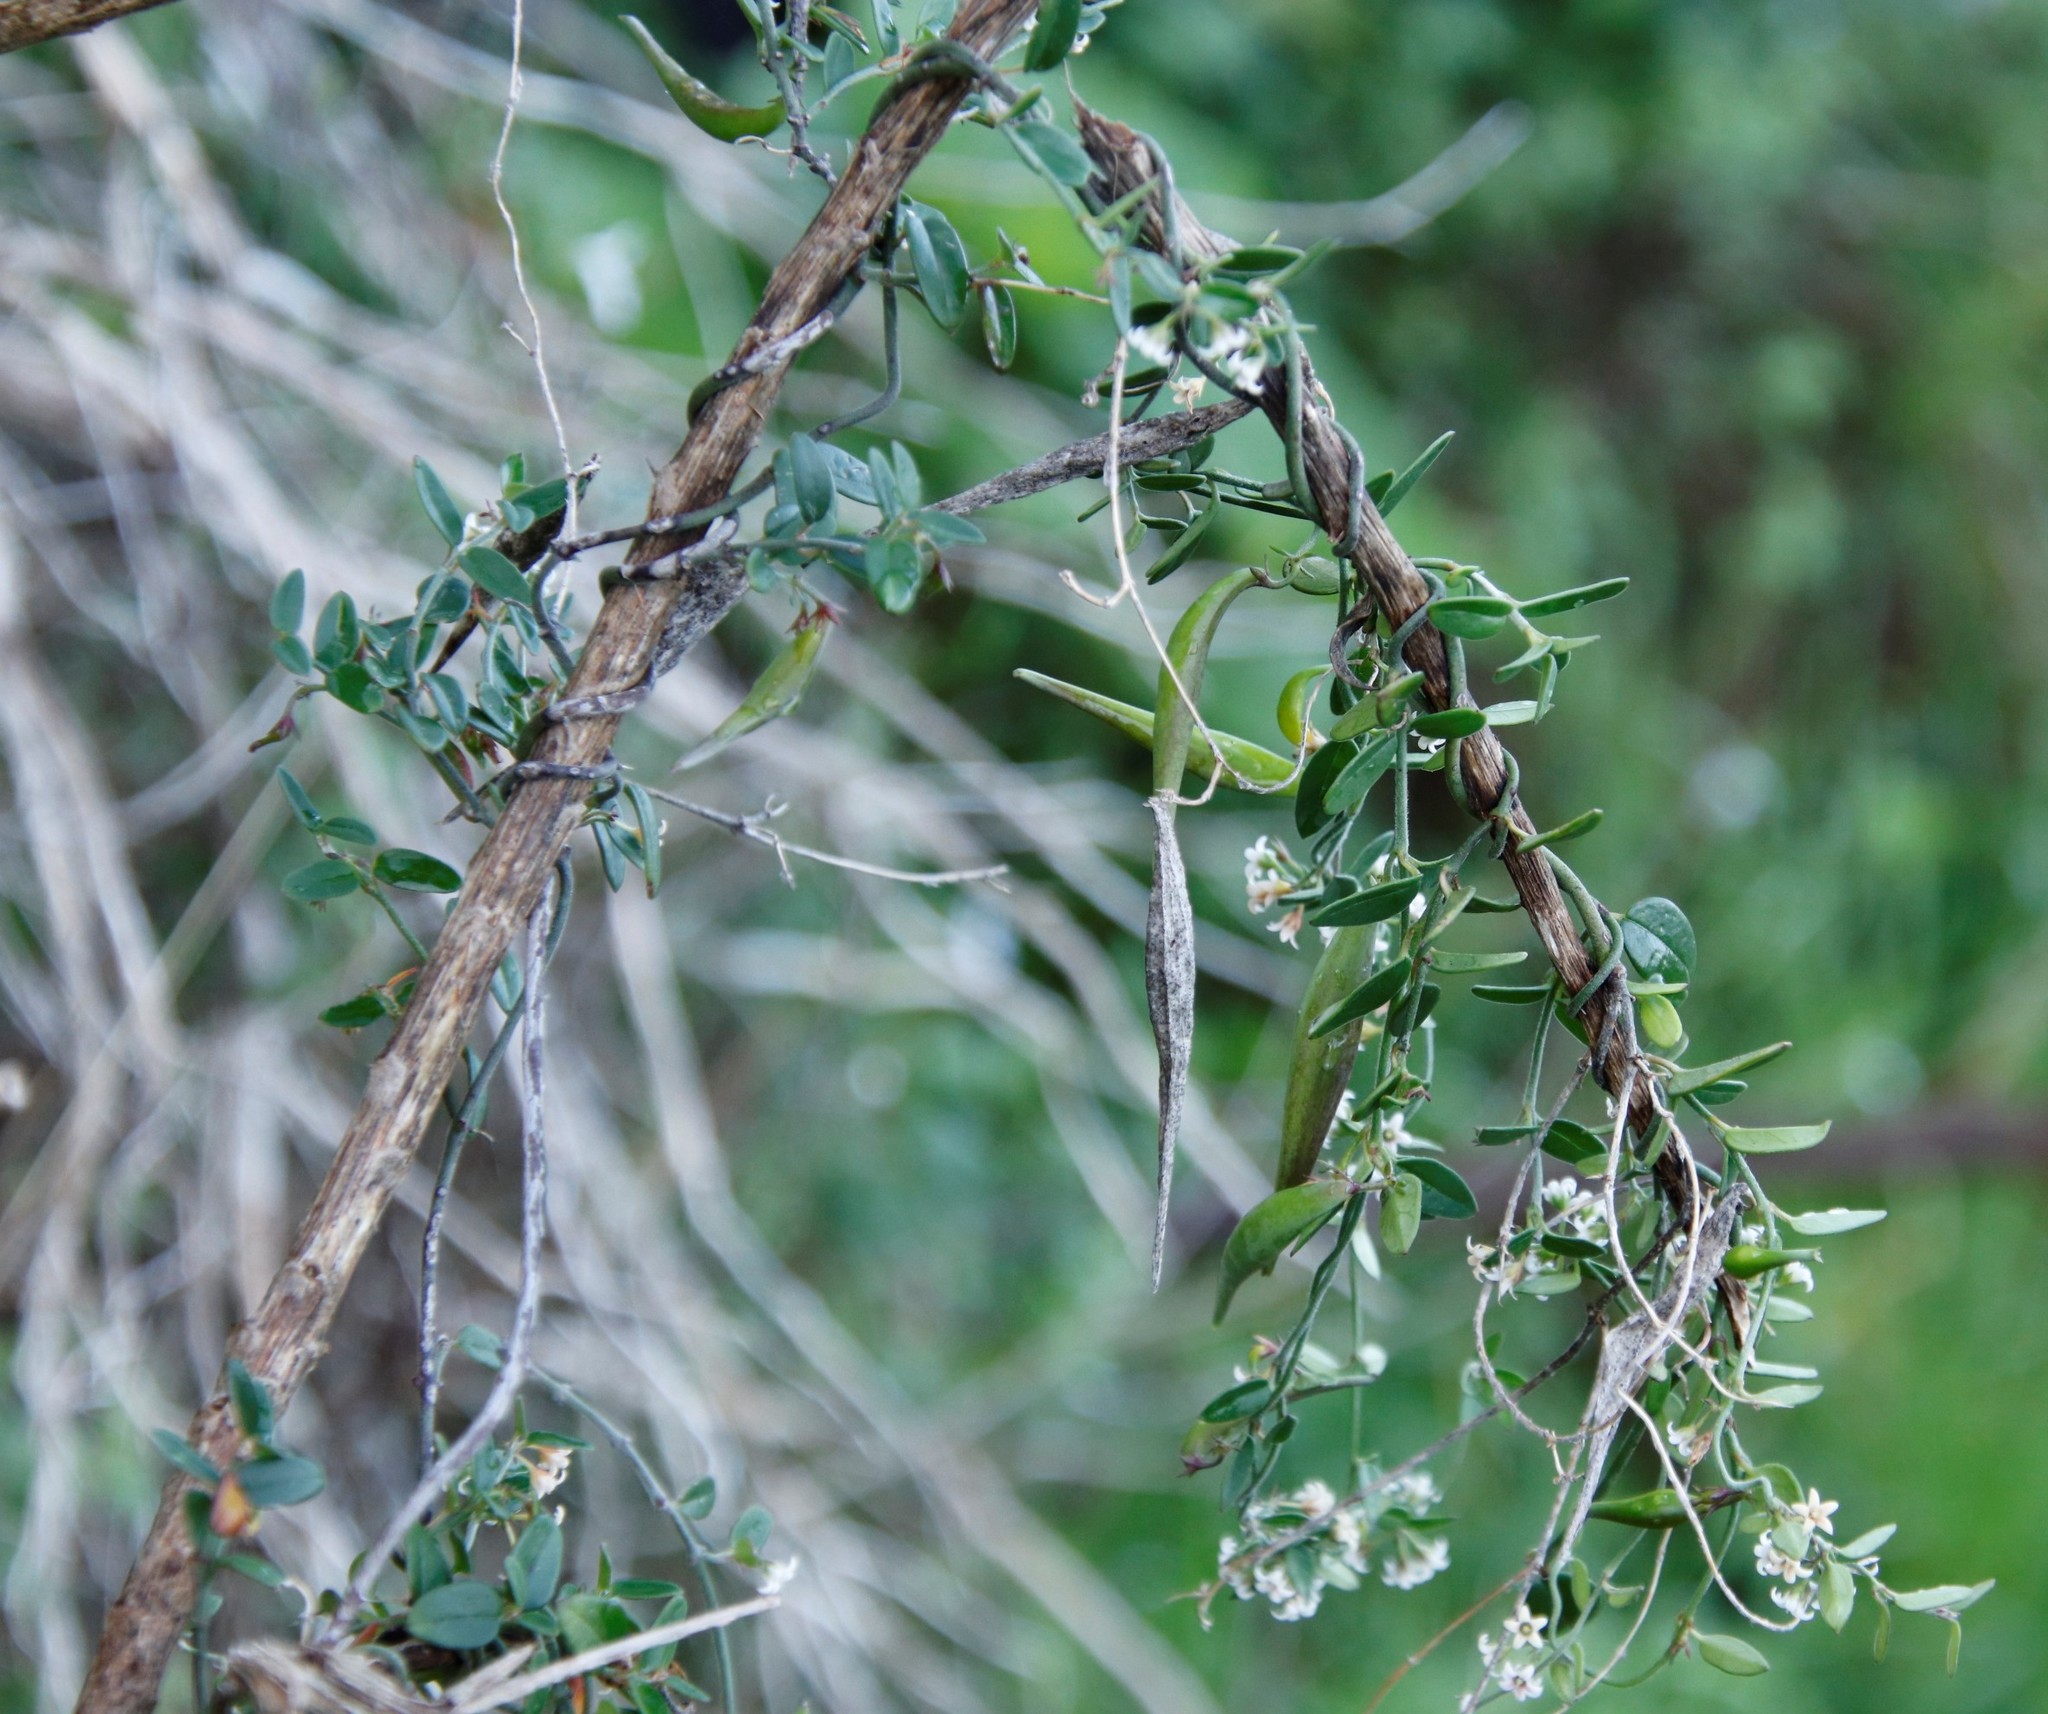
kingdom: Plantae
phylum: Tracheophyta
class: Magnoliopsida
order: Gentianales
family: Apocynaceae
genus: Astephanus
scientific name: Astephanus triflorus
